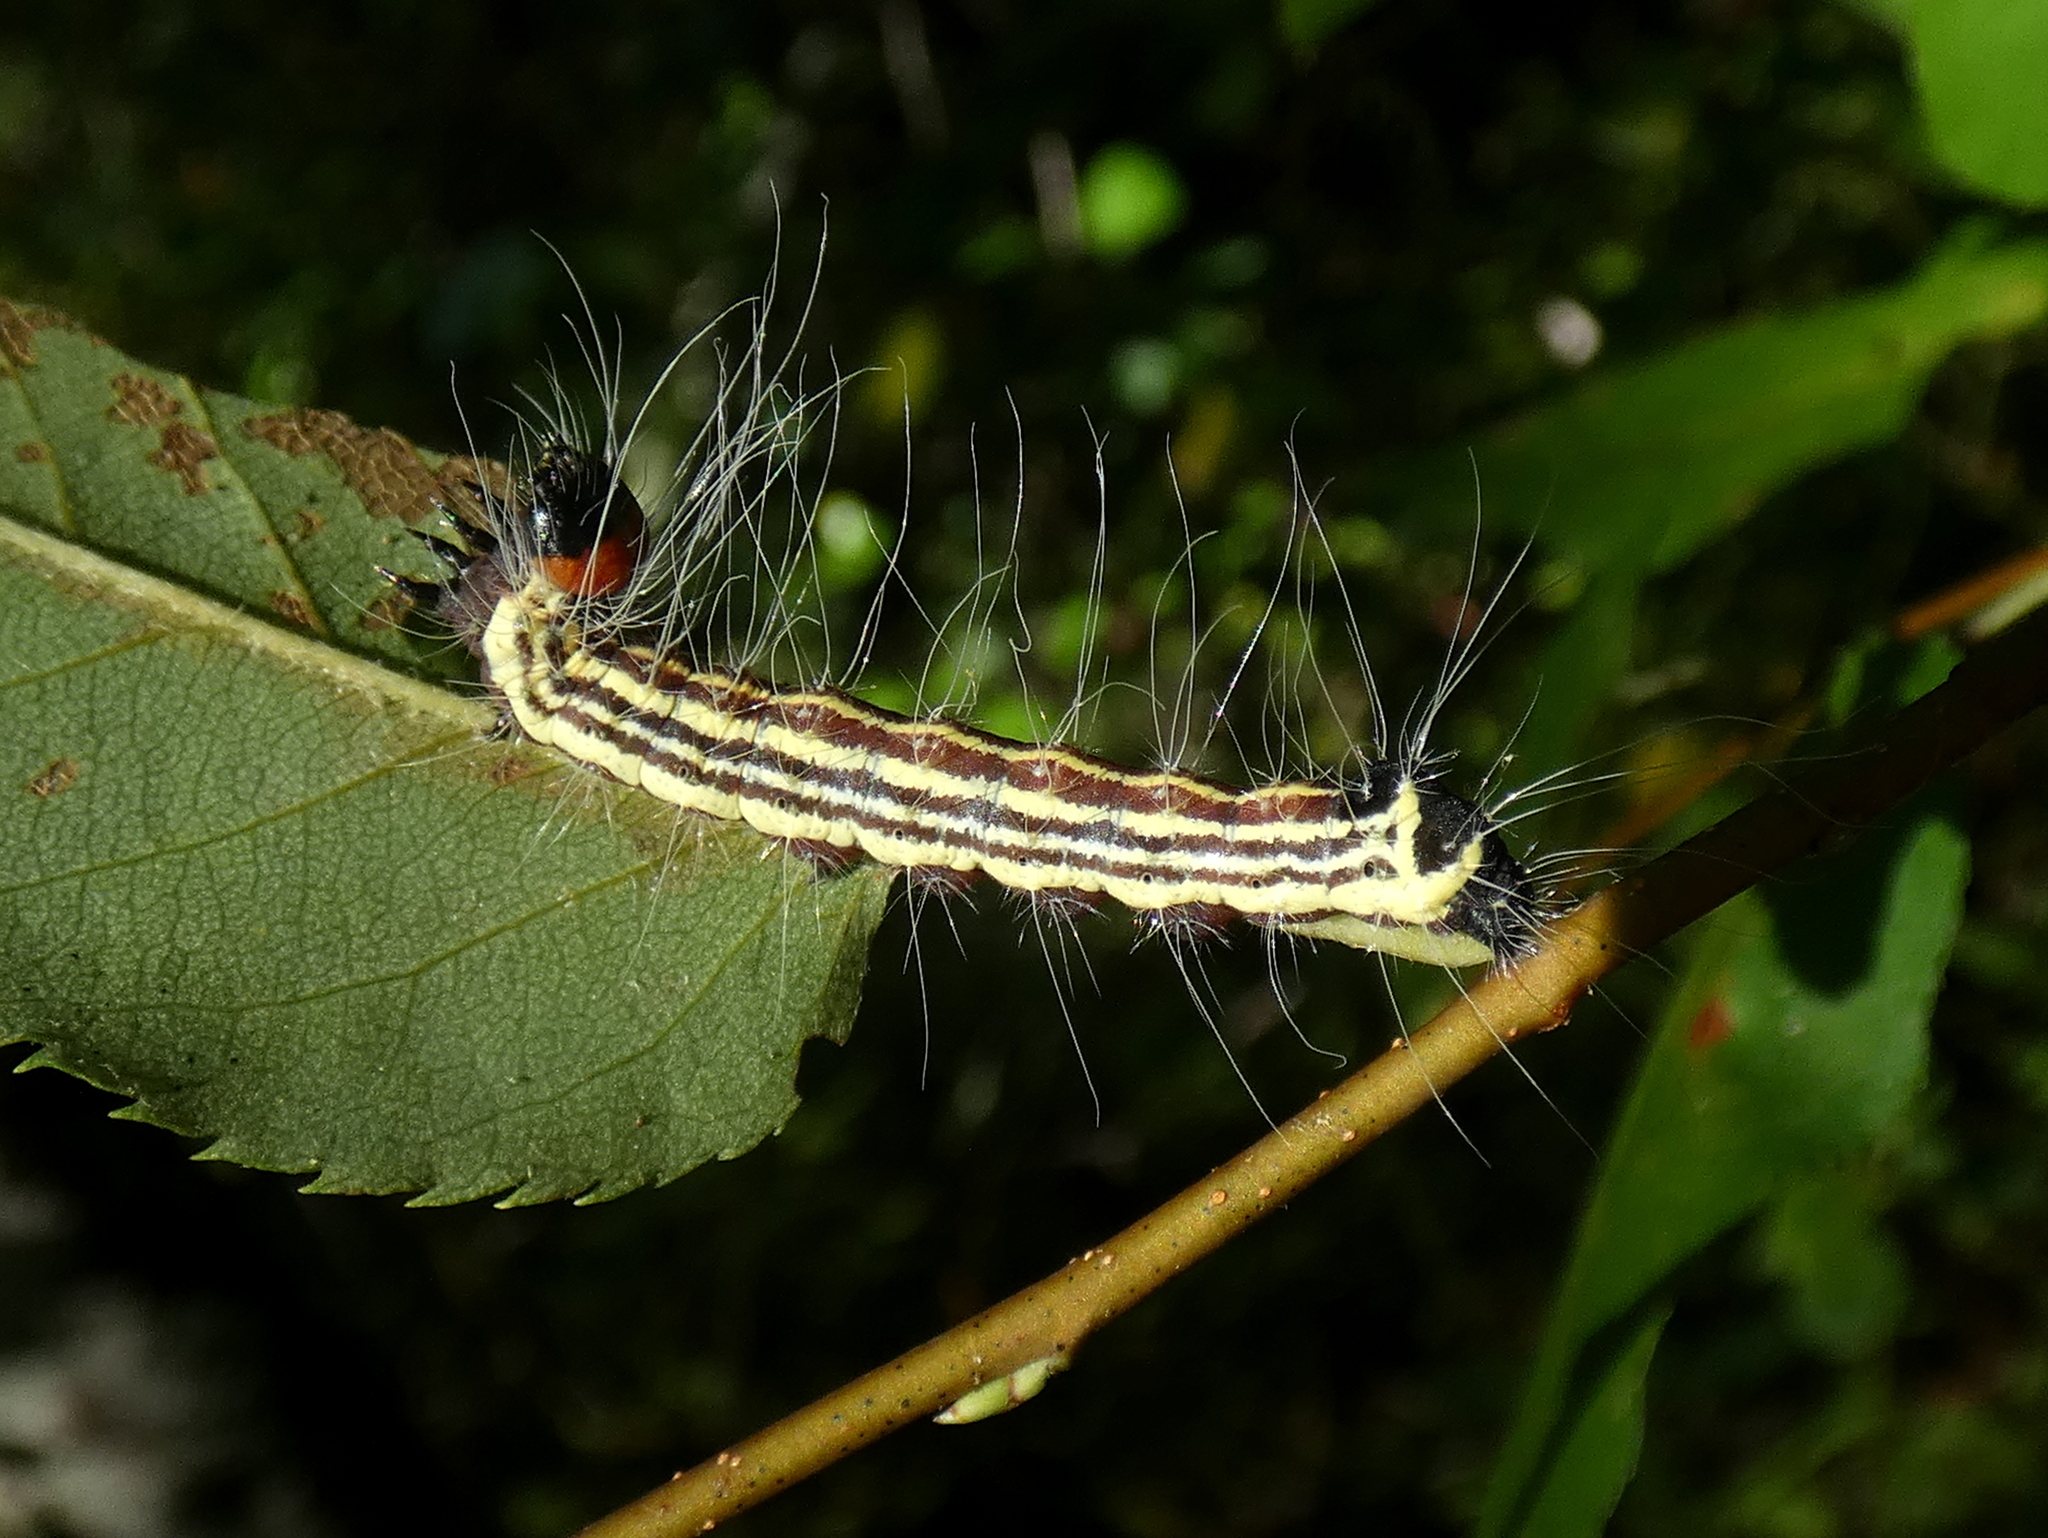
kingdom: Animalia
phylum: Arthropoda
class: Insecta
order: Lepidoptera
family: Noctuidae
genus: Acronicta
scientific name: Acronicta radcliffei
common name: Radcliffe's dagger
